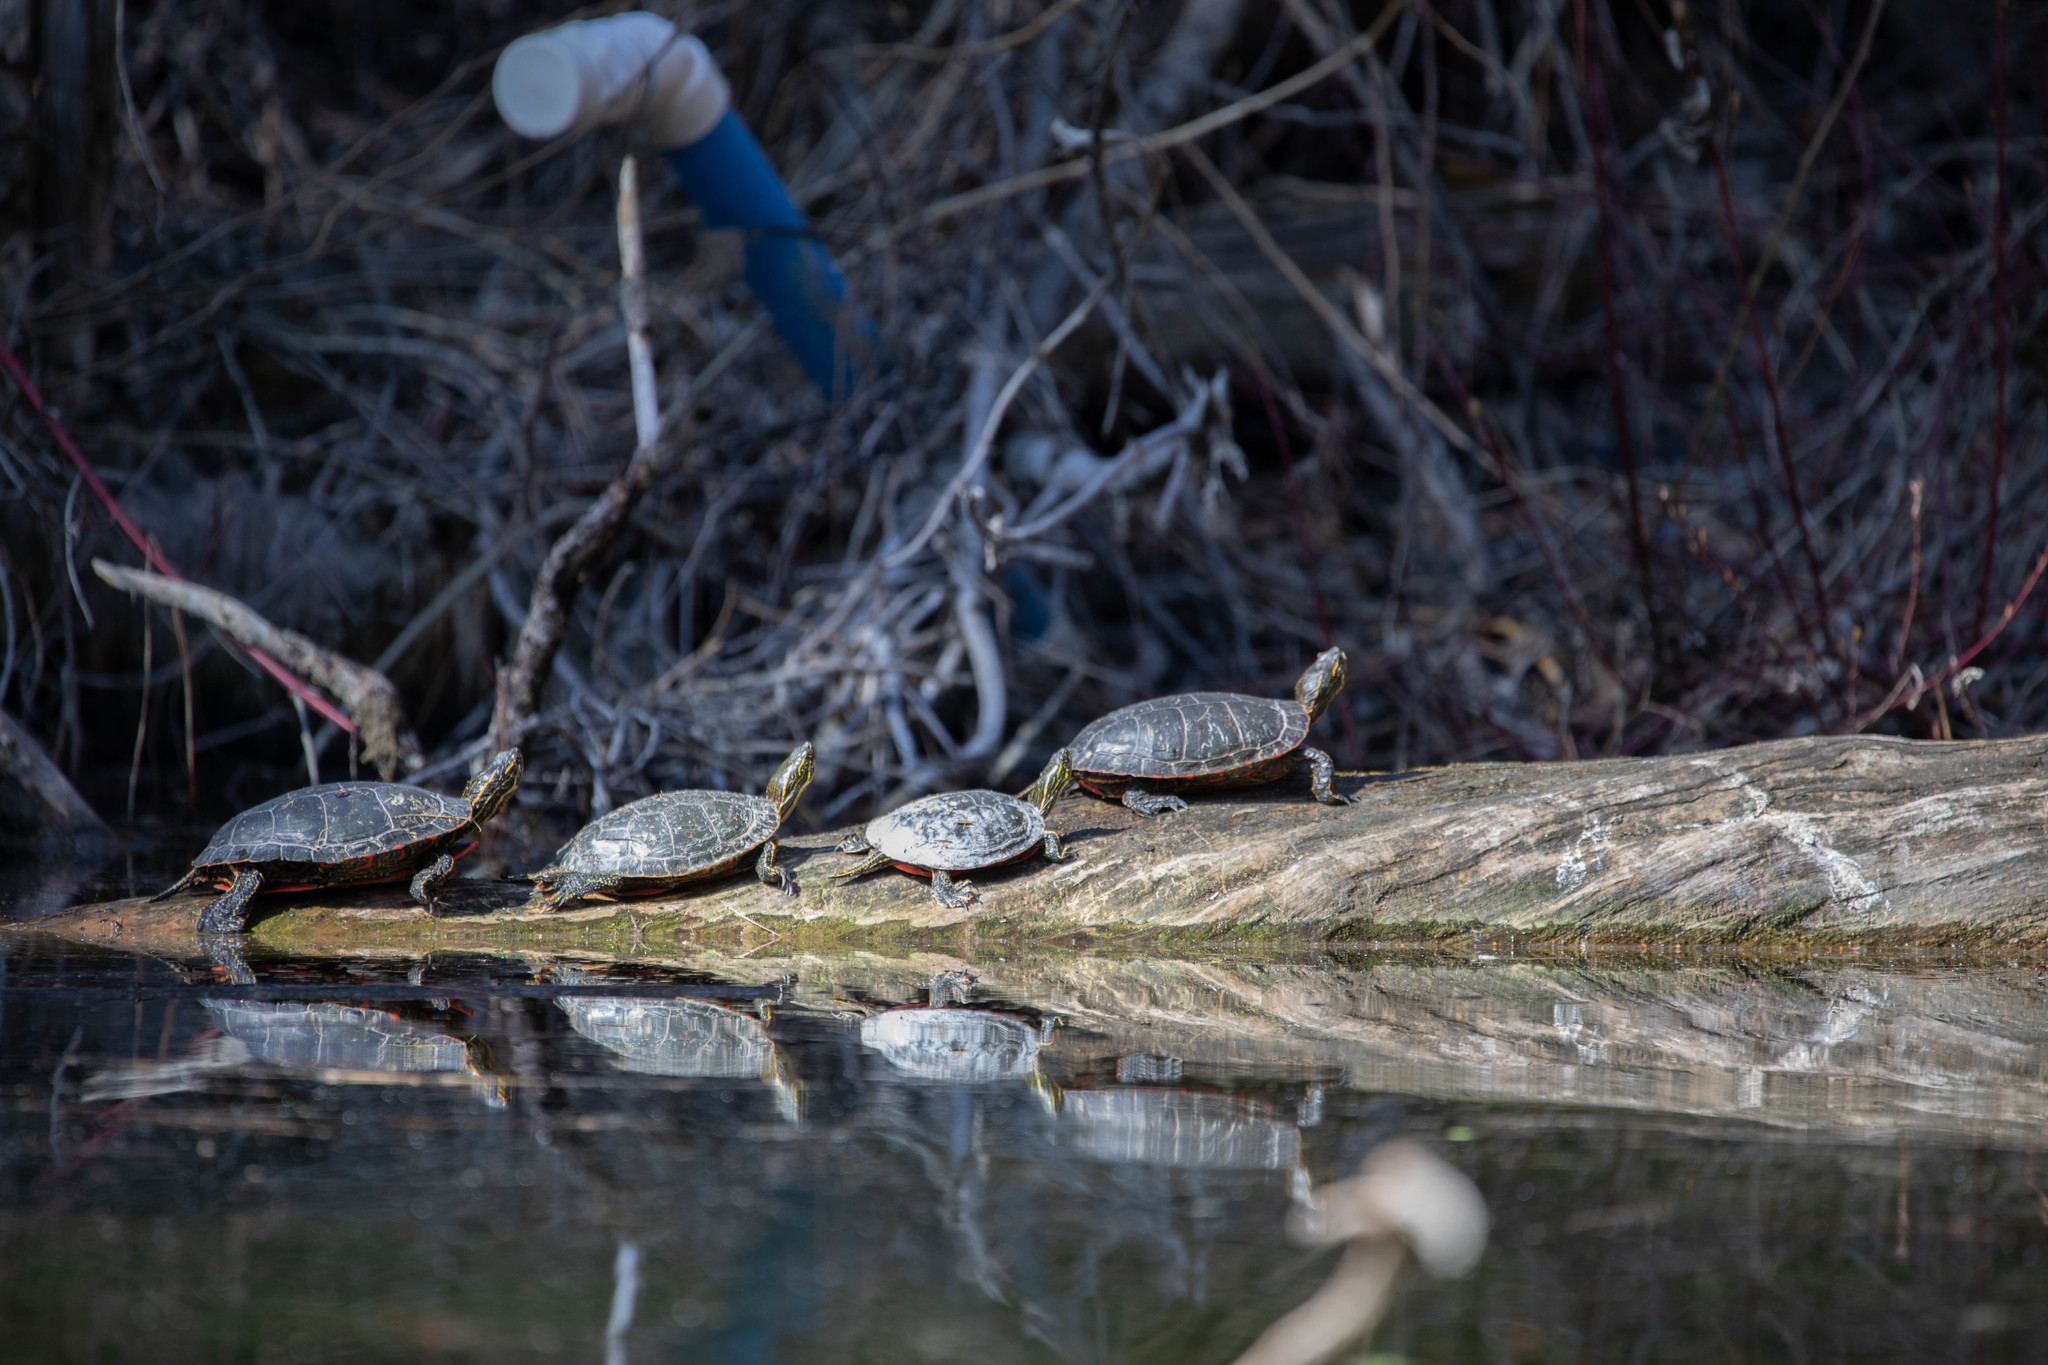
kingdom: Animalia
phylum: Chordata
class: Testudines
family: Emydidae
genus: Chrysemys
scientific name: Chrysemys picta
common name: Painted turtle
